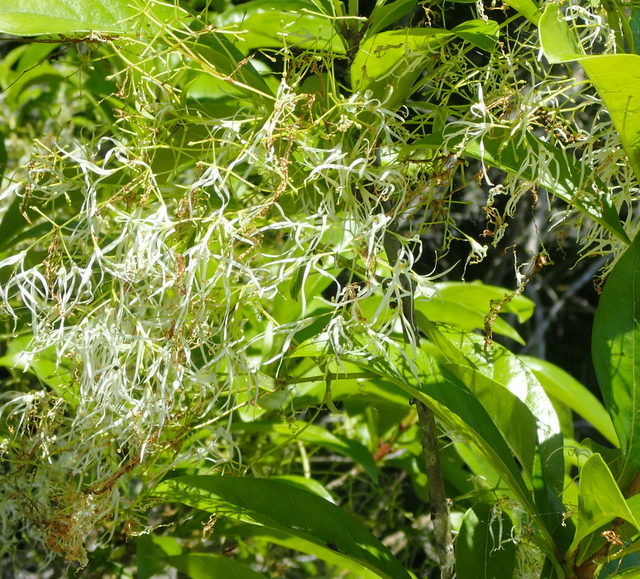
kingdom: Plantae
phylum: Tracheophyta
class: Magnoliopsida
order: Lamiales
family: Oleaceae
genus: Chionanthus
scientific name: Chionanthus virginicus
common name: American fringetree
